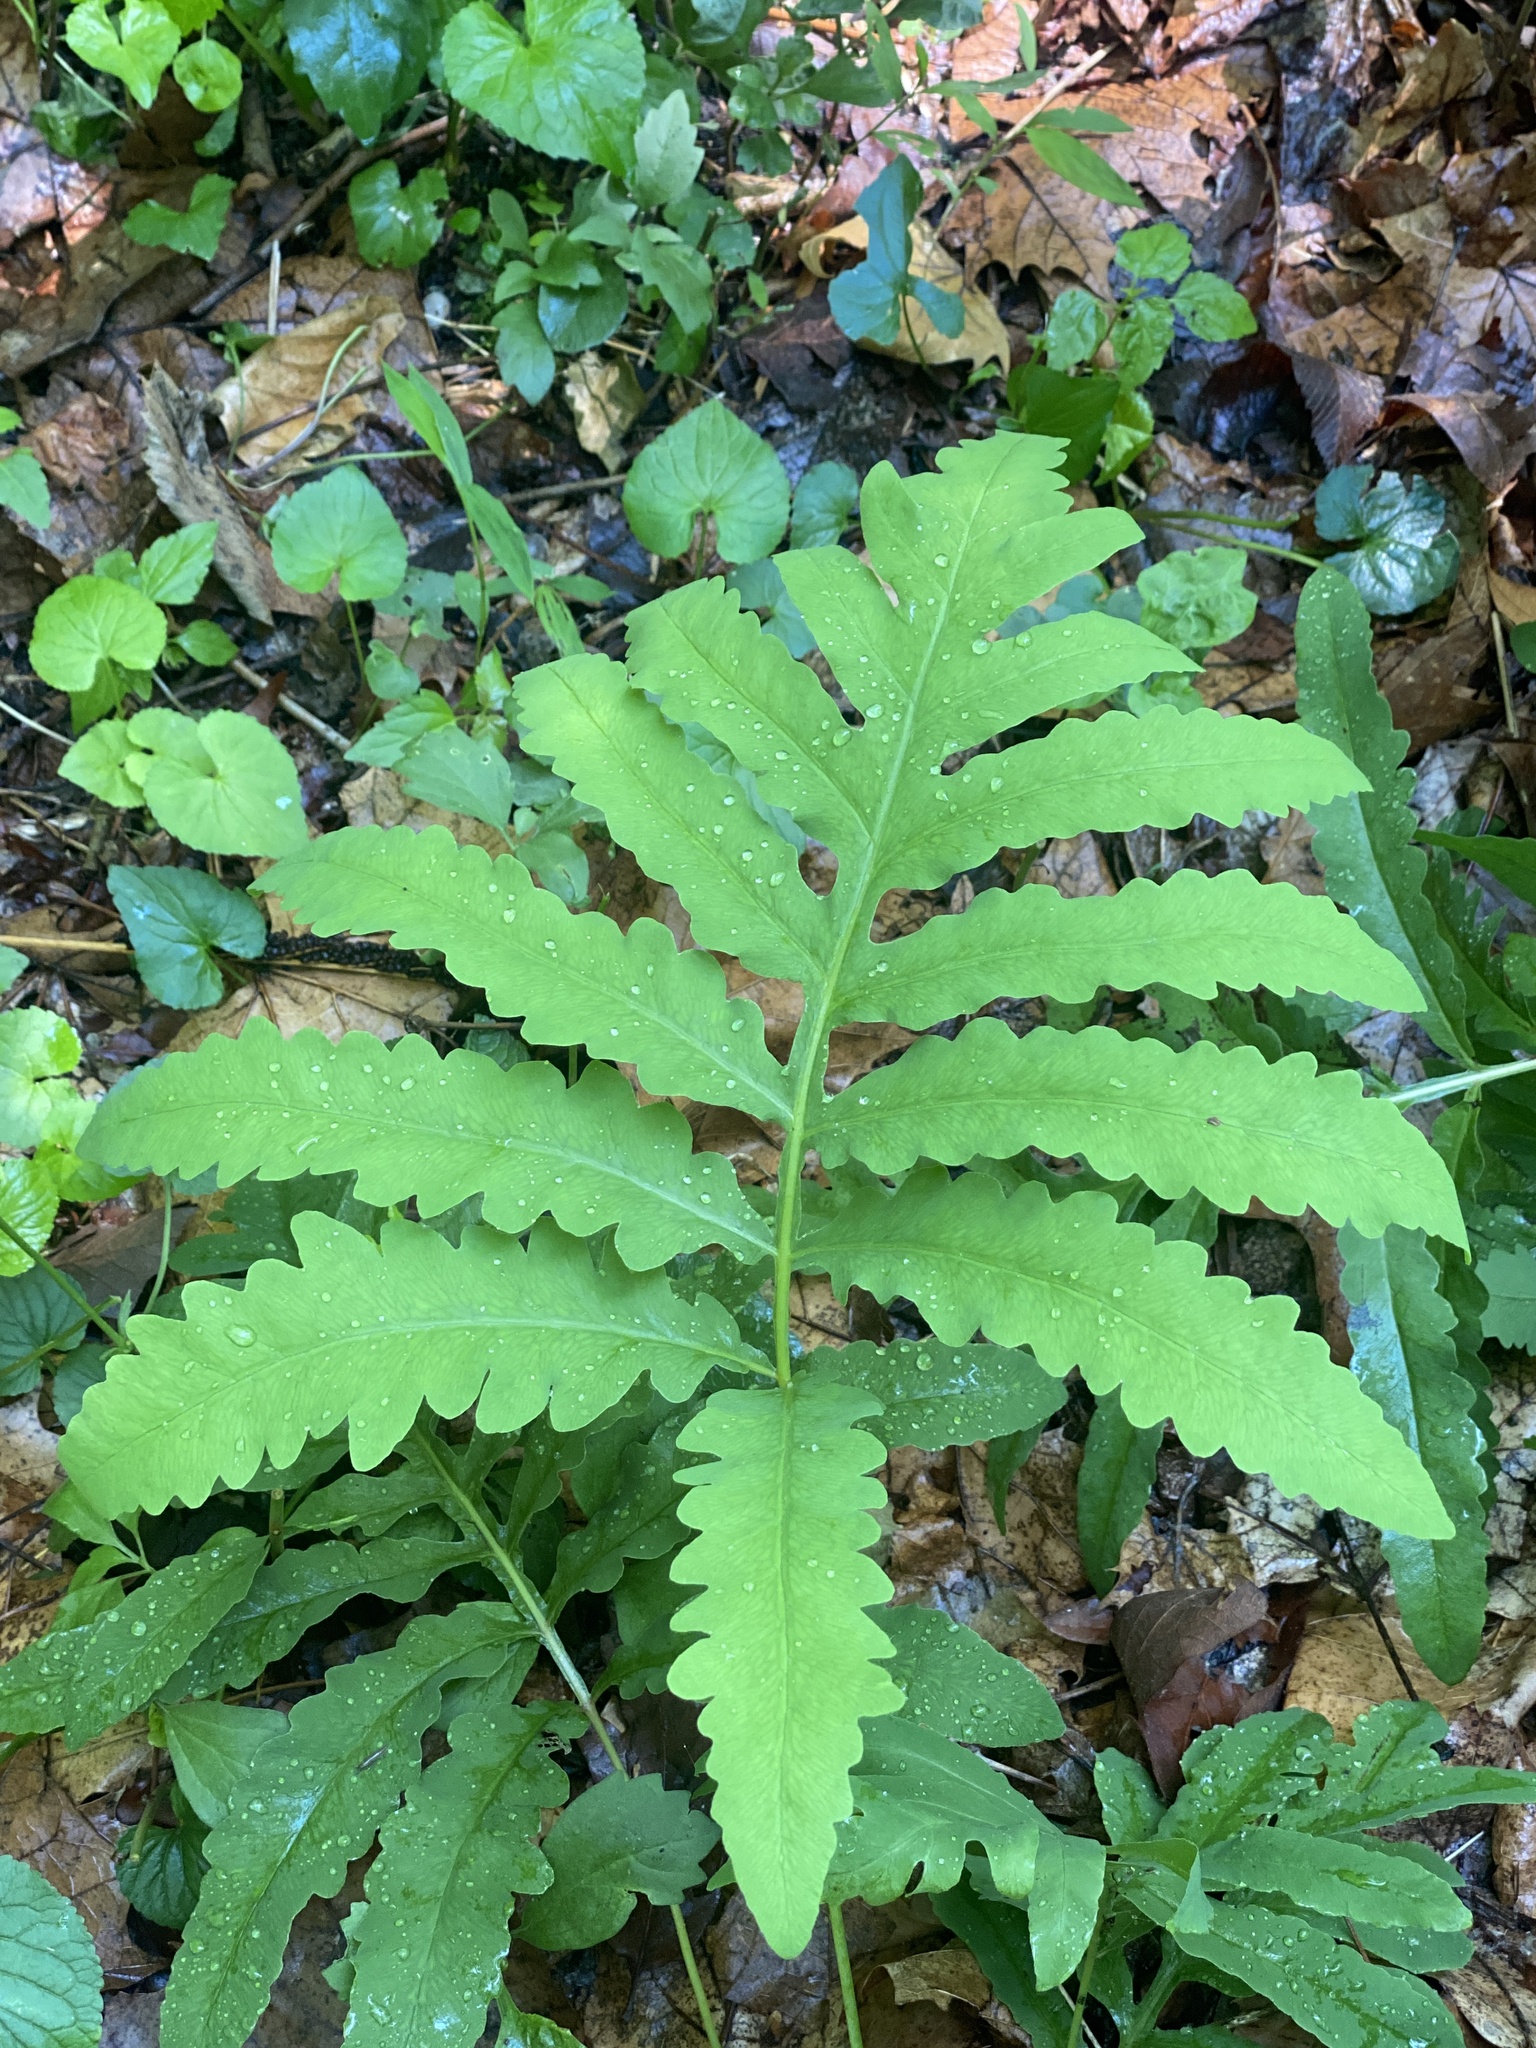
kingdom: Plantae
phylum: Tracheophyta
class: Polypodiopsida
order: Polypodiales
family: Onocleaceae
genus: Onoclea
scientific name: Onoclea sensibilis
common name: Sensitive fern
